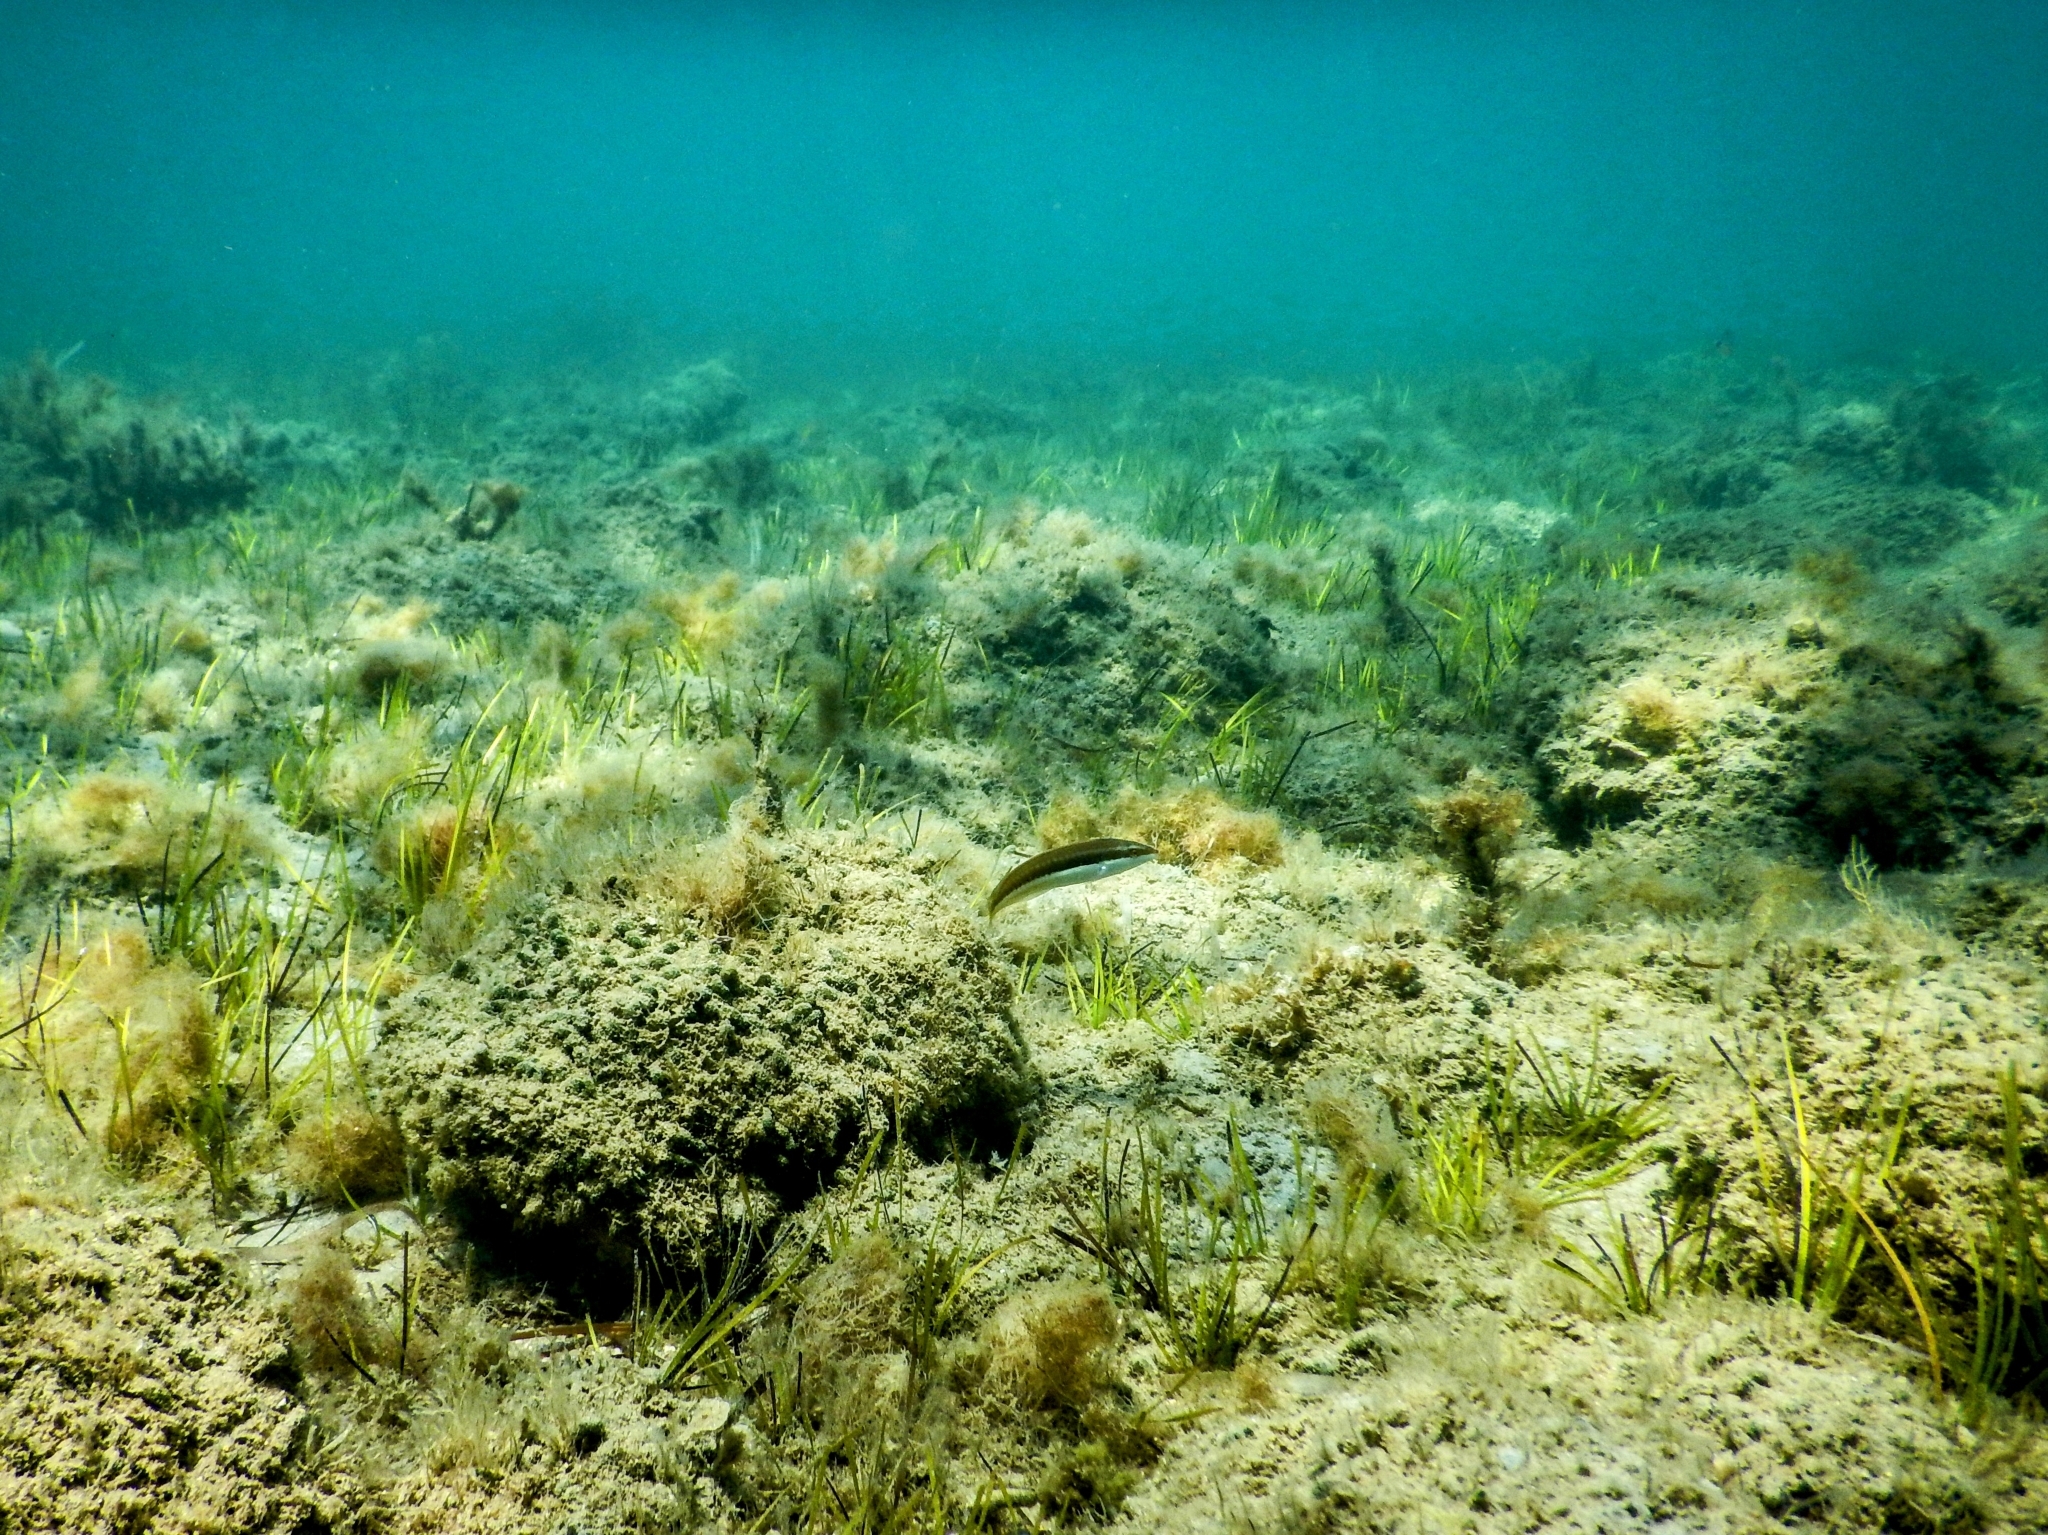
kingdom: Animalia
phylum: Chordata
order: Perciformes
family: Labridae
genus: Coris
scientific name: Coris julis
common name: Rainbow wrasse
